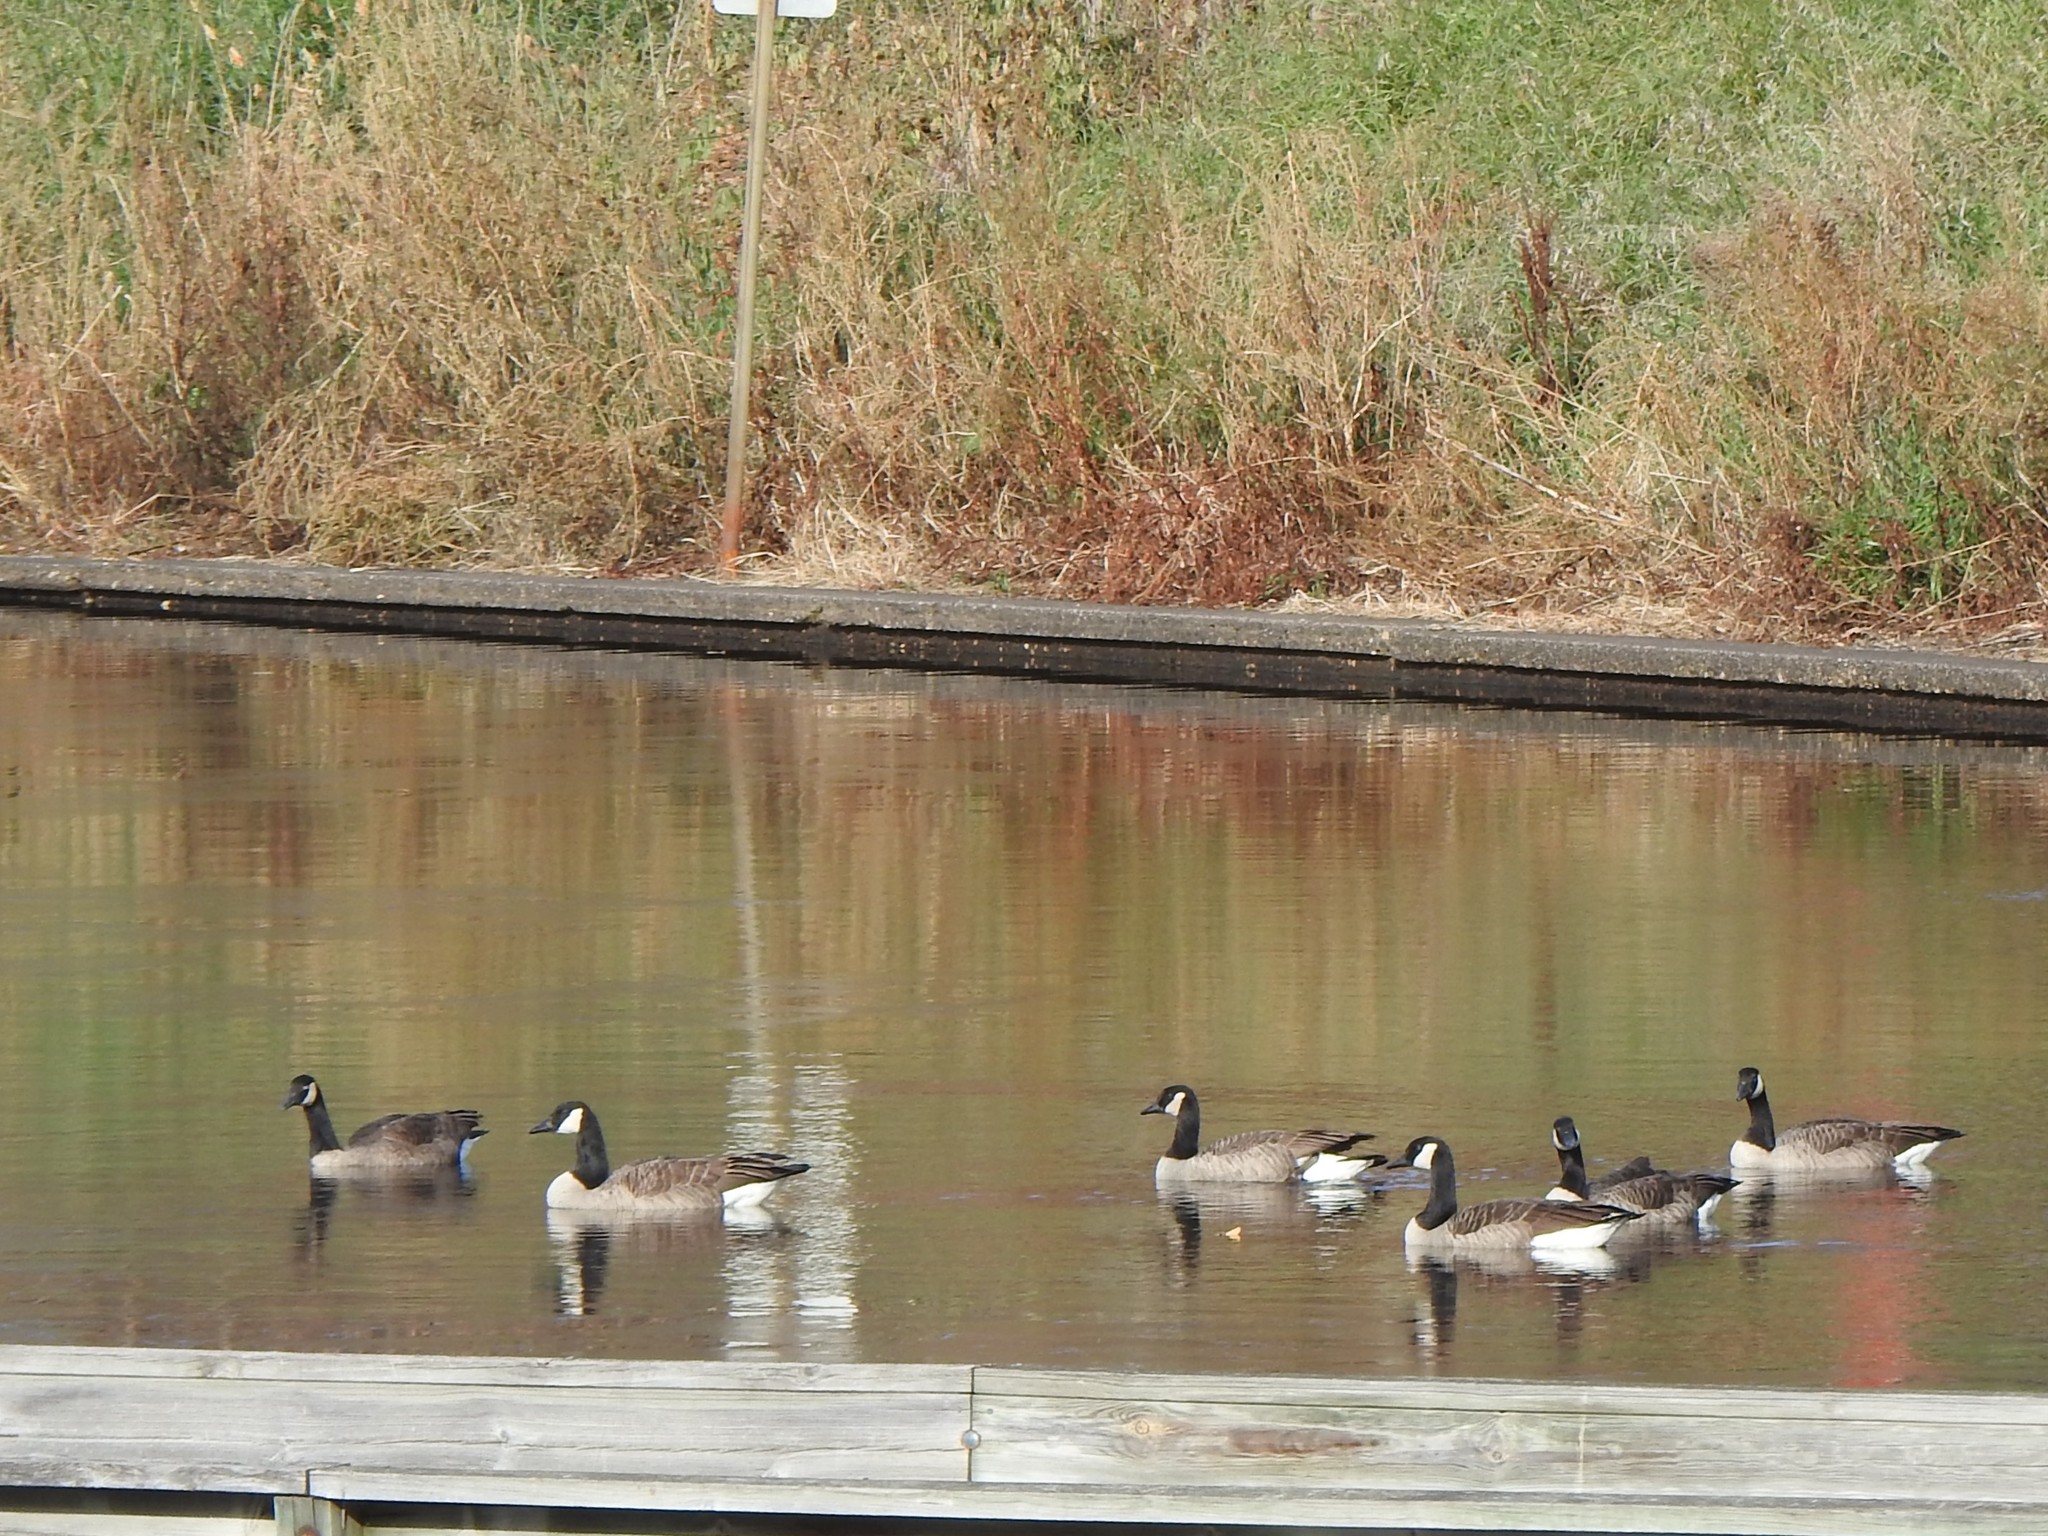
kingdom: Animalia
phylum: Chordata
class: Aves
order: Anseriformes
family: Anatidae
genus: Branta
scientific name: Branta canadensis
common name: Canada goose
